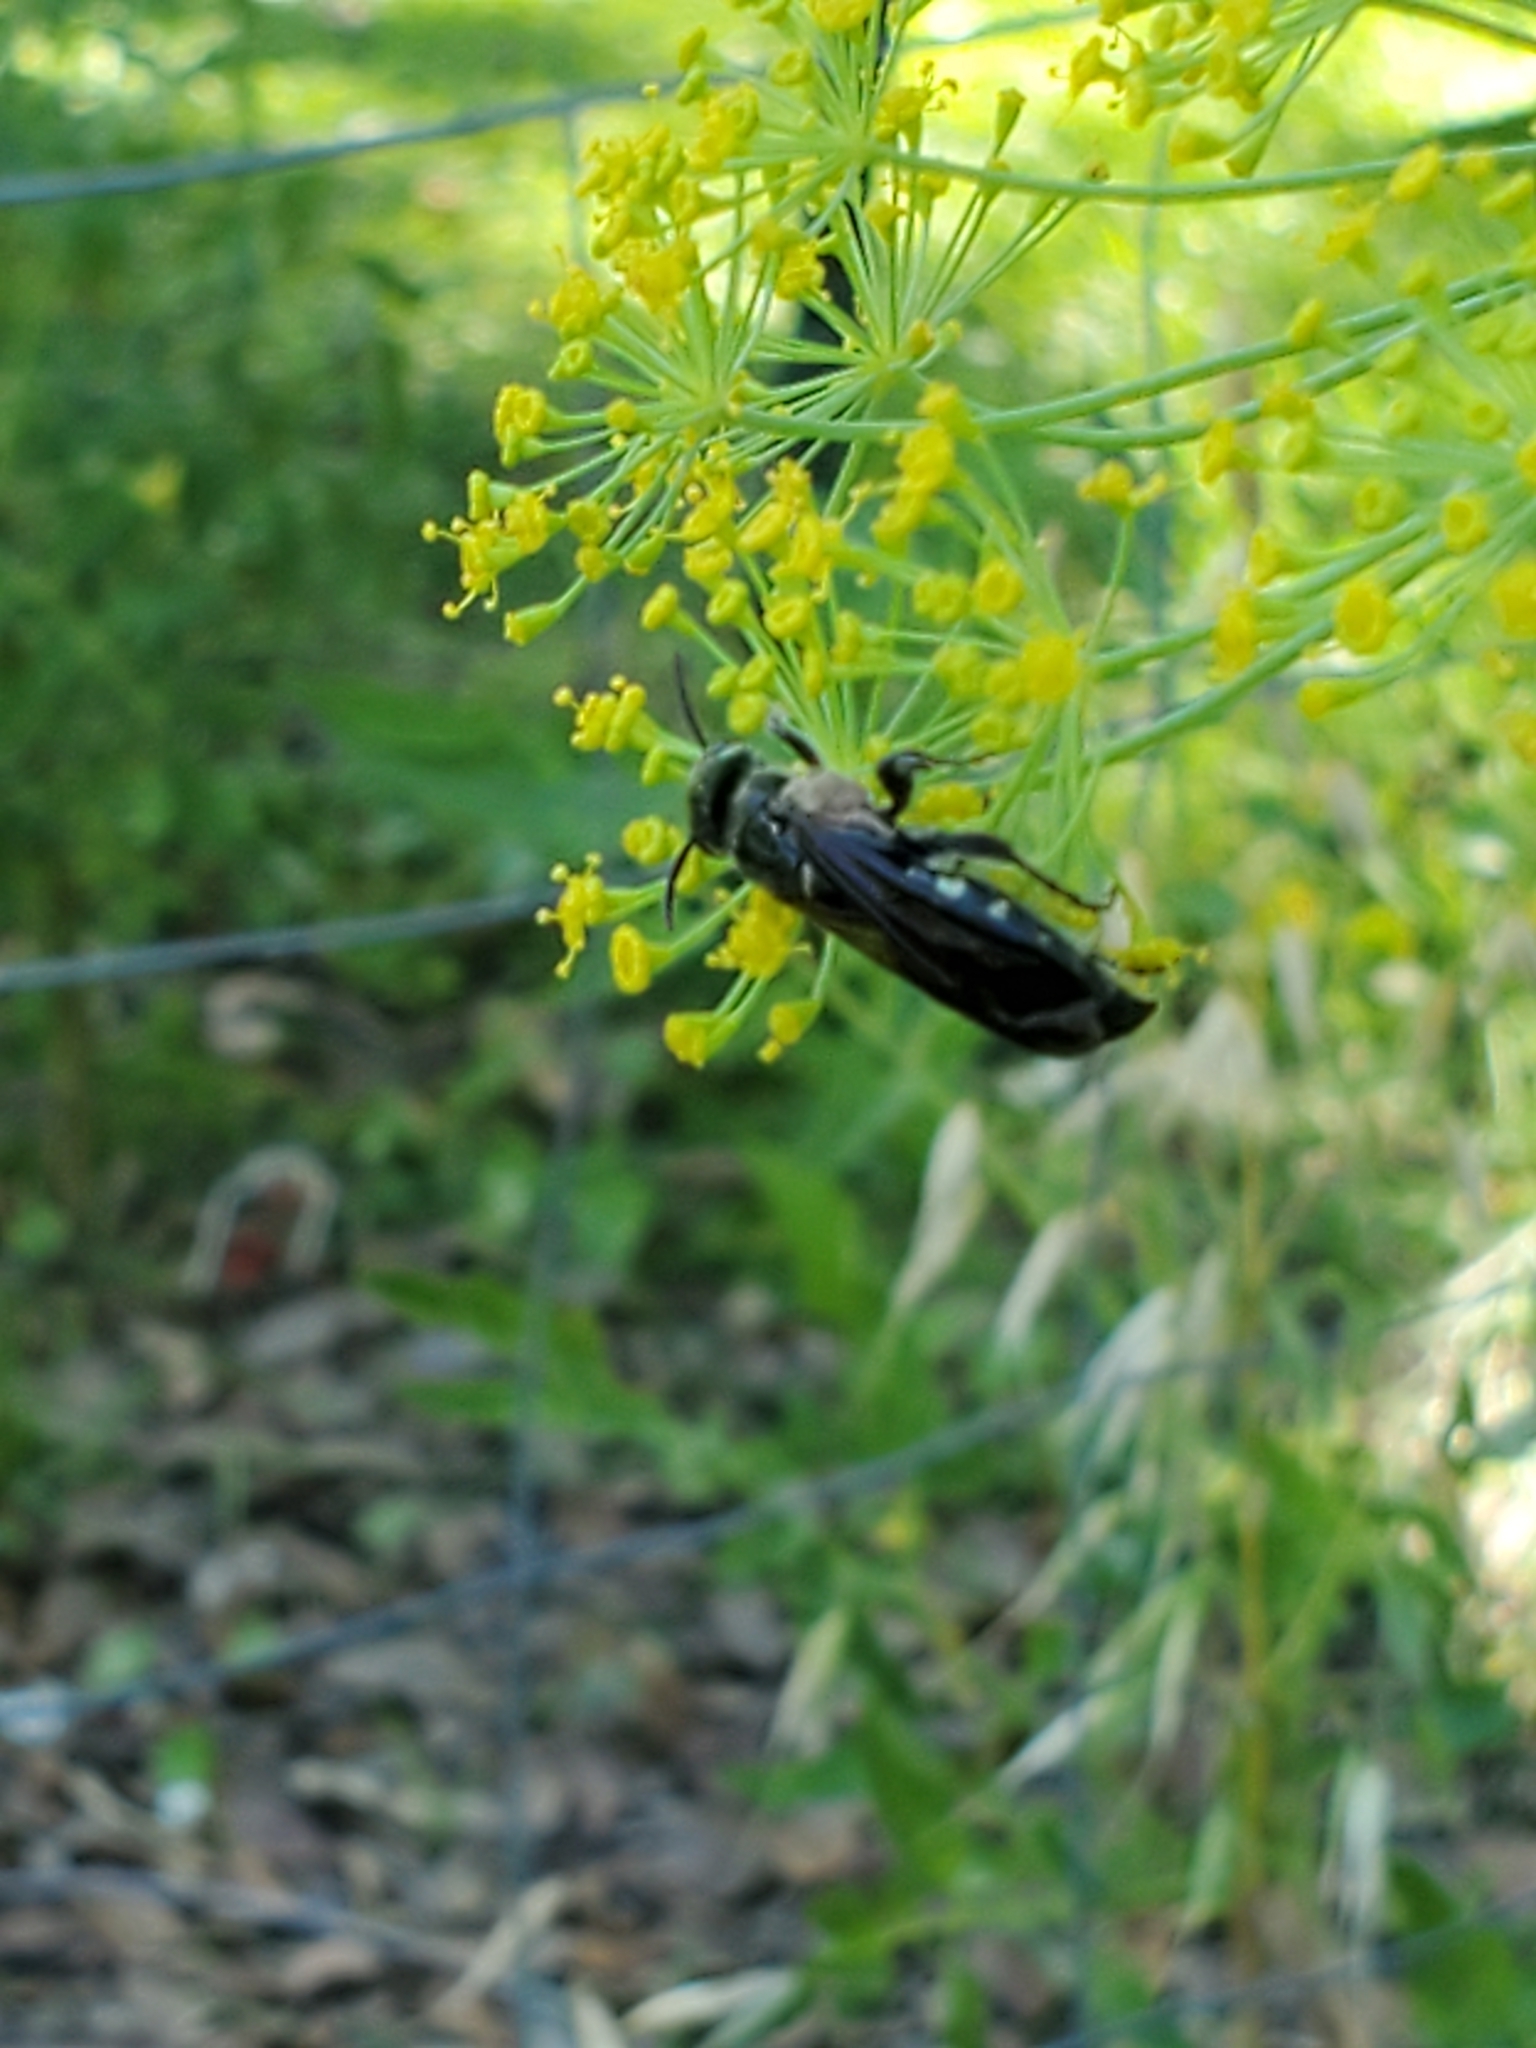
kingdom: Animalia
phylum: Arthropoda
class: Insecta
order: Hymenoptera
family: Tiphiidae
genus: Myzinum
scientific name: Myzinum obscurum
